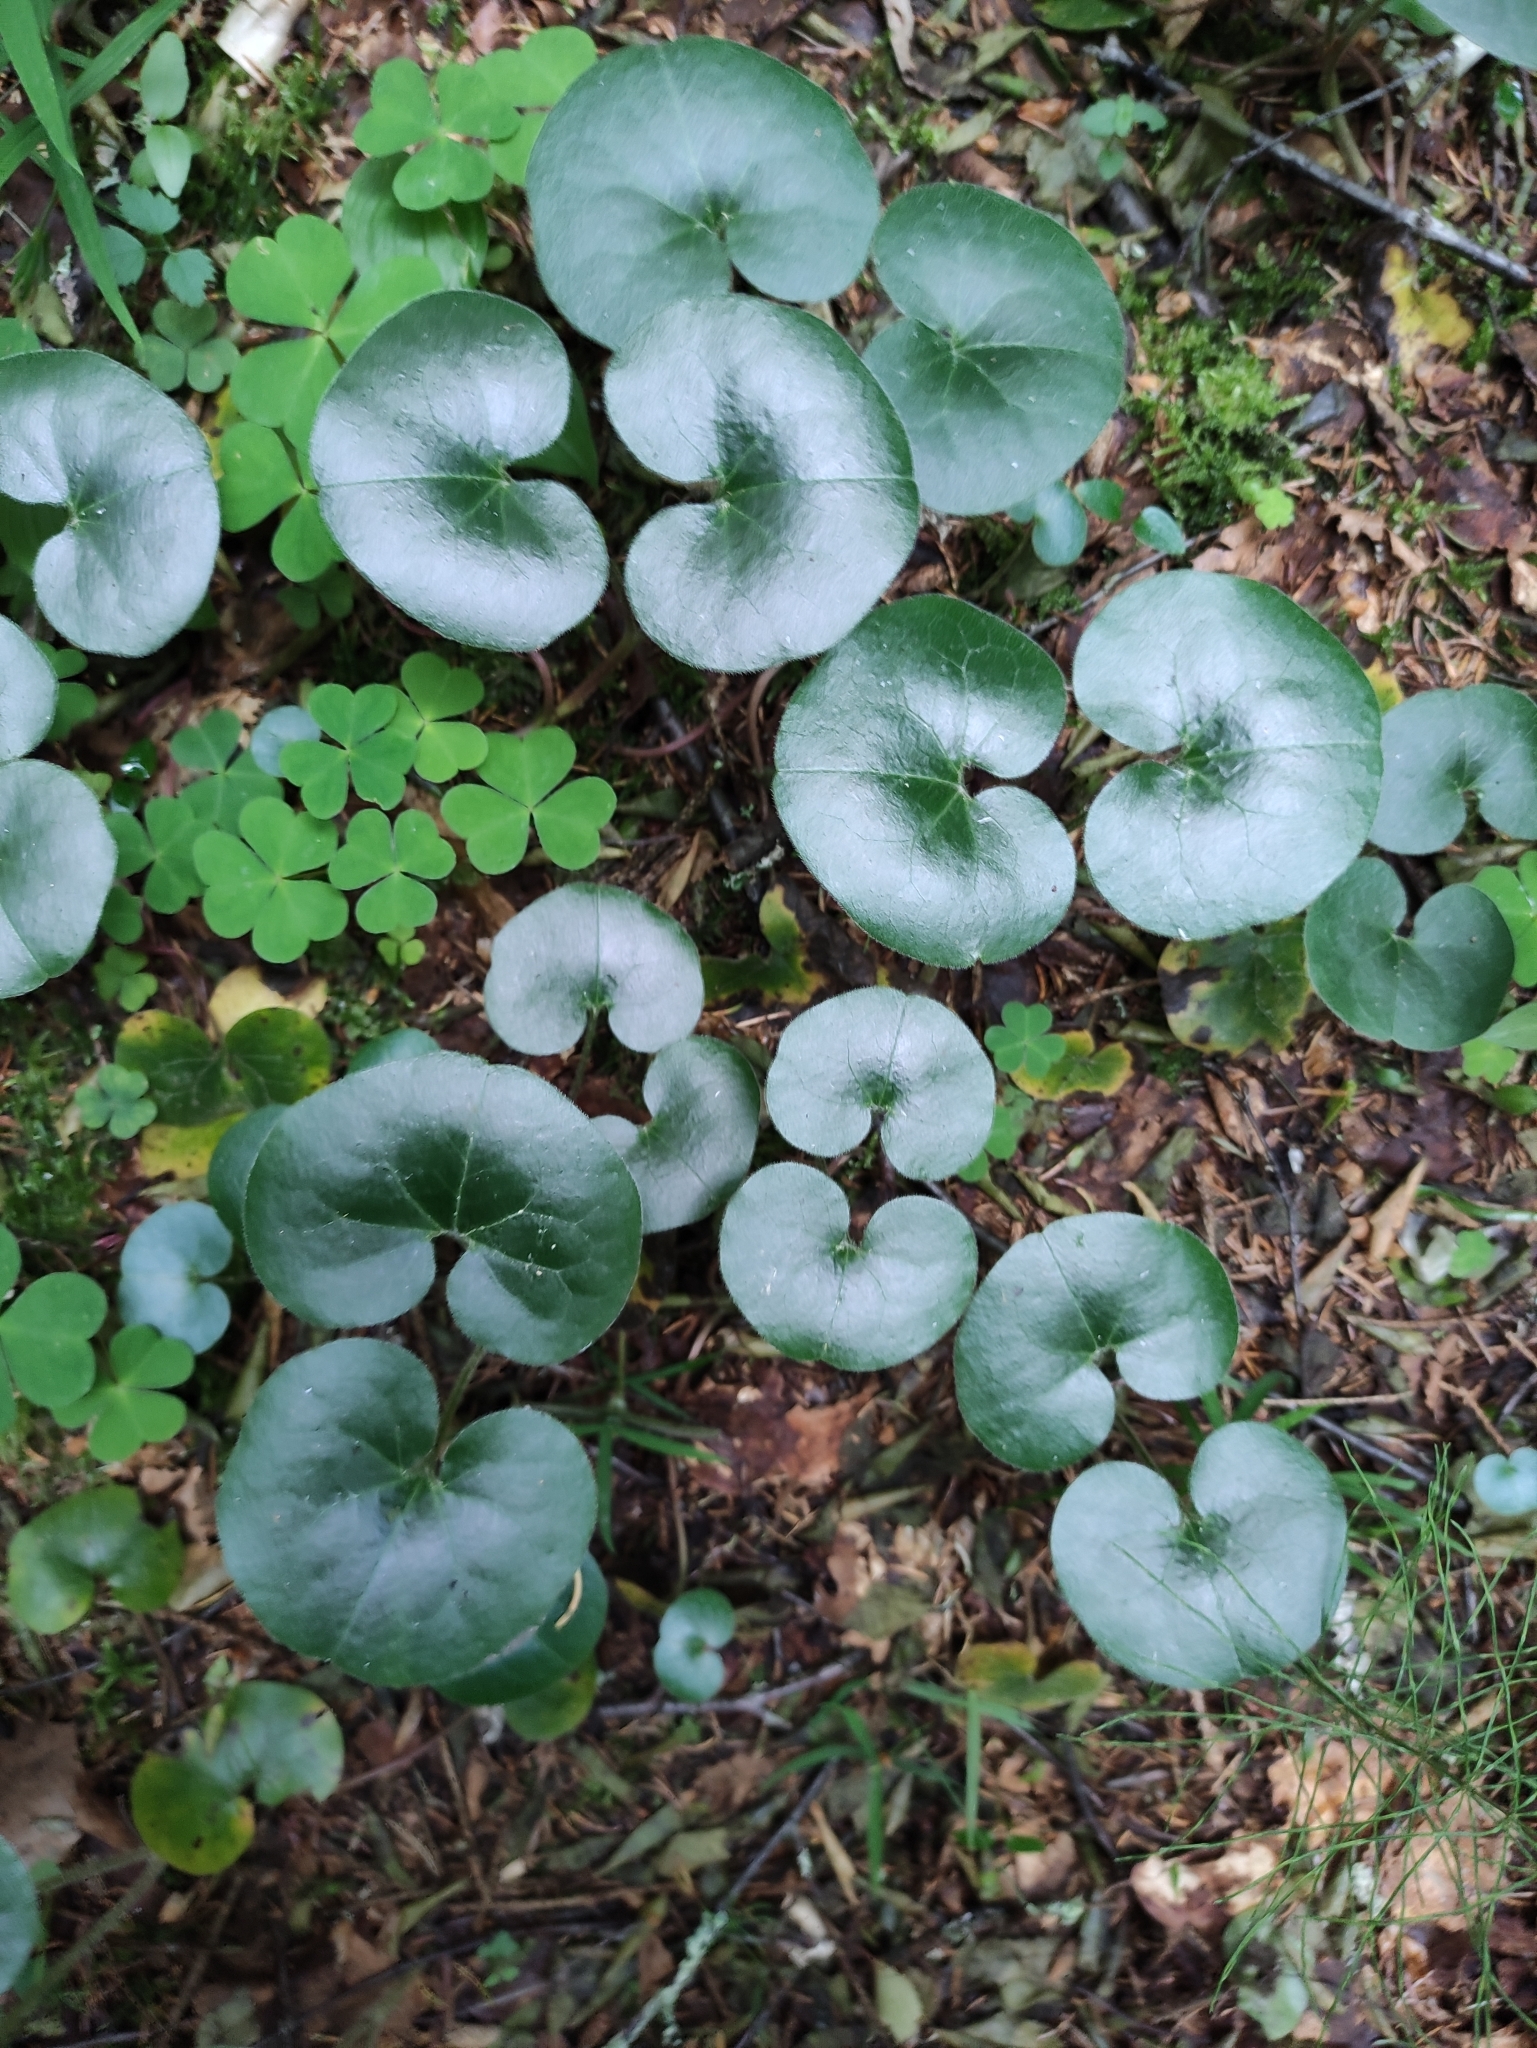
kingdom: Plantae
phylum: Tracheophyta
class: Magnoliopsida
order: Piperales
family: Aristolochiaceae
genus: Asarum
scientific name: Asarum europaeum
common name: Asarabacca
